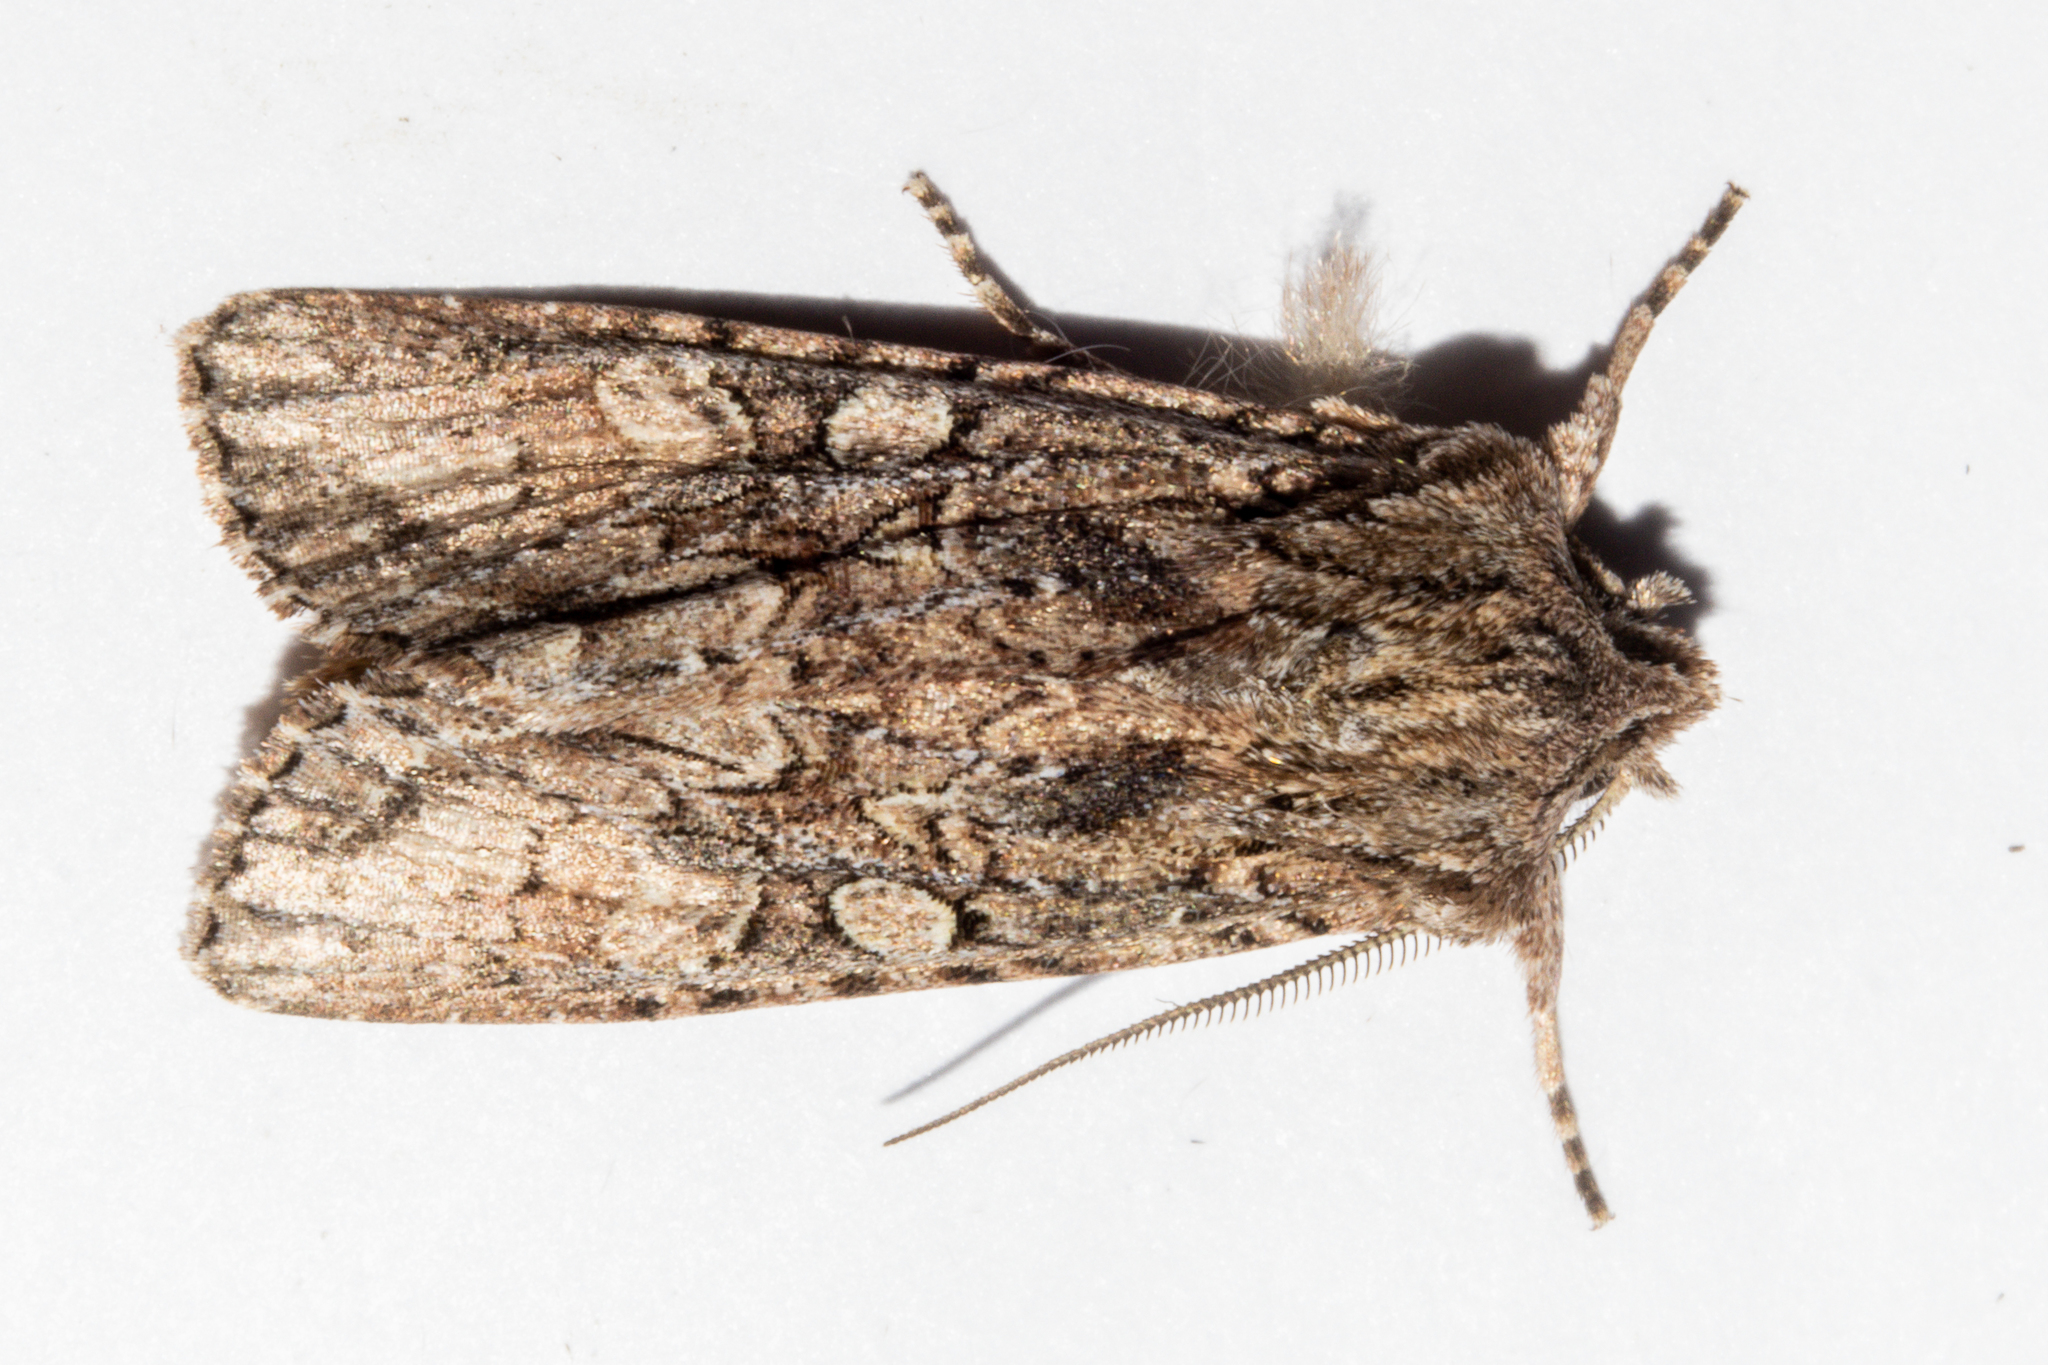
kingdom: Animalia
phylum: Arthropoda
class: Insecta
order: Lepidoptera
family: Noctuidae
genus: Ichneutica
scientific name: Ichneutica mutans
